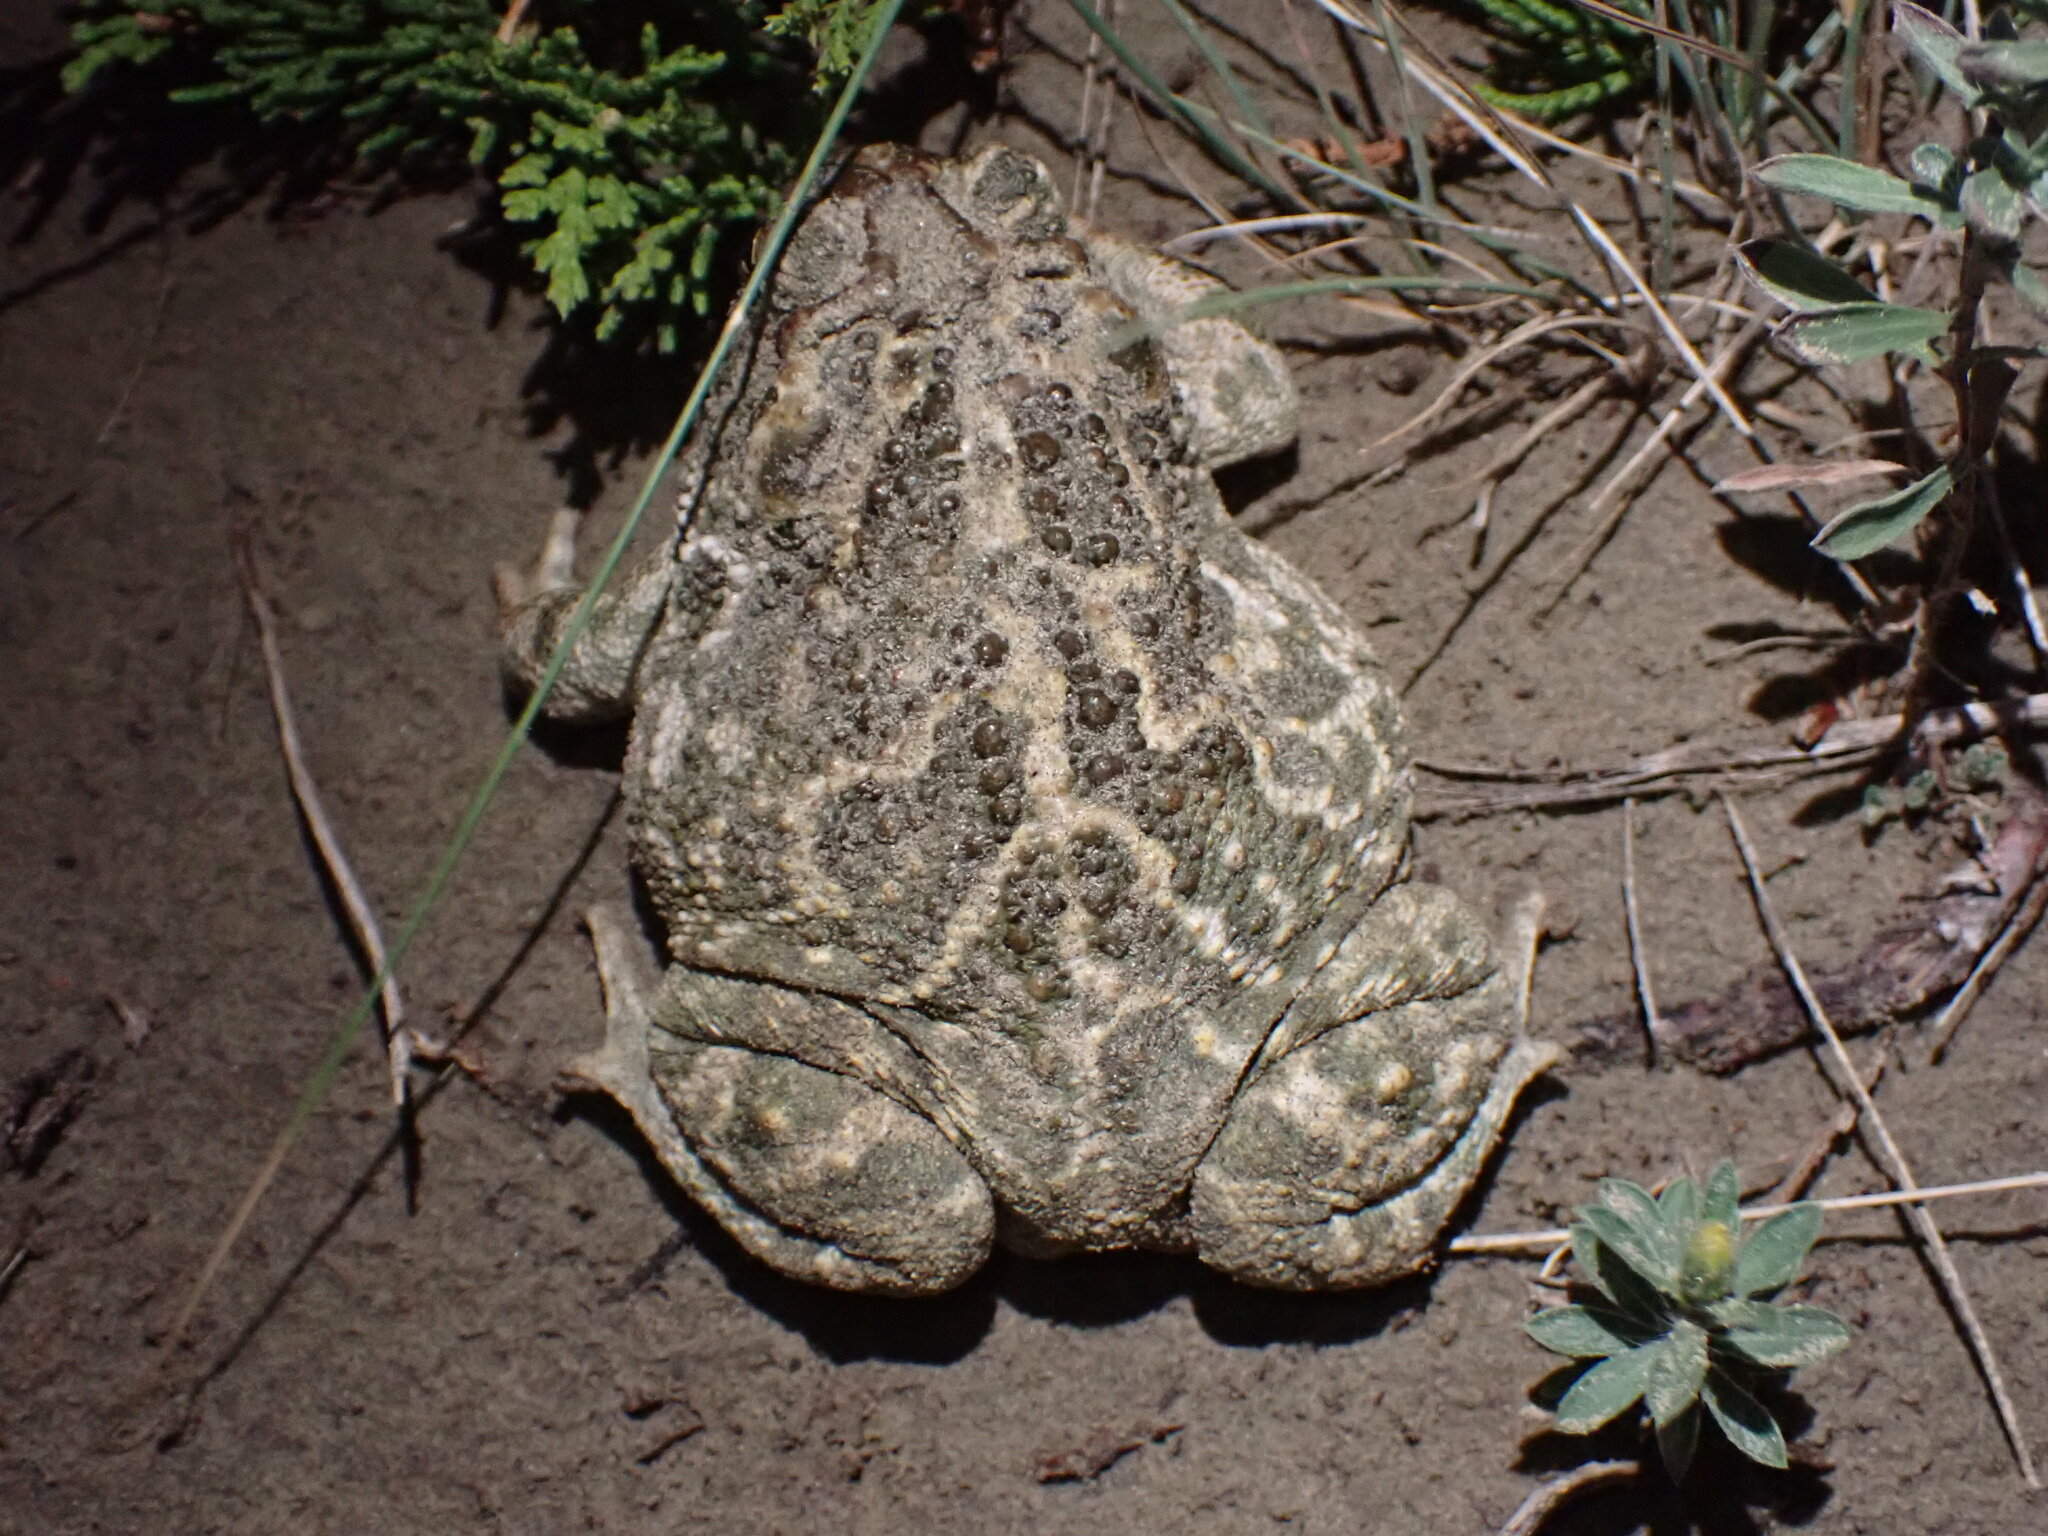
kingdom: Animalia
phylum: Chordata
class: Amphibia
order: Anura
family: Bufonidae
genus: Anaxyrus
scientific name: Anaxyrus cognatus
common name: Great plains toad
